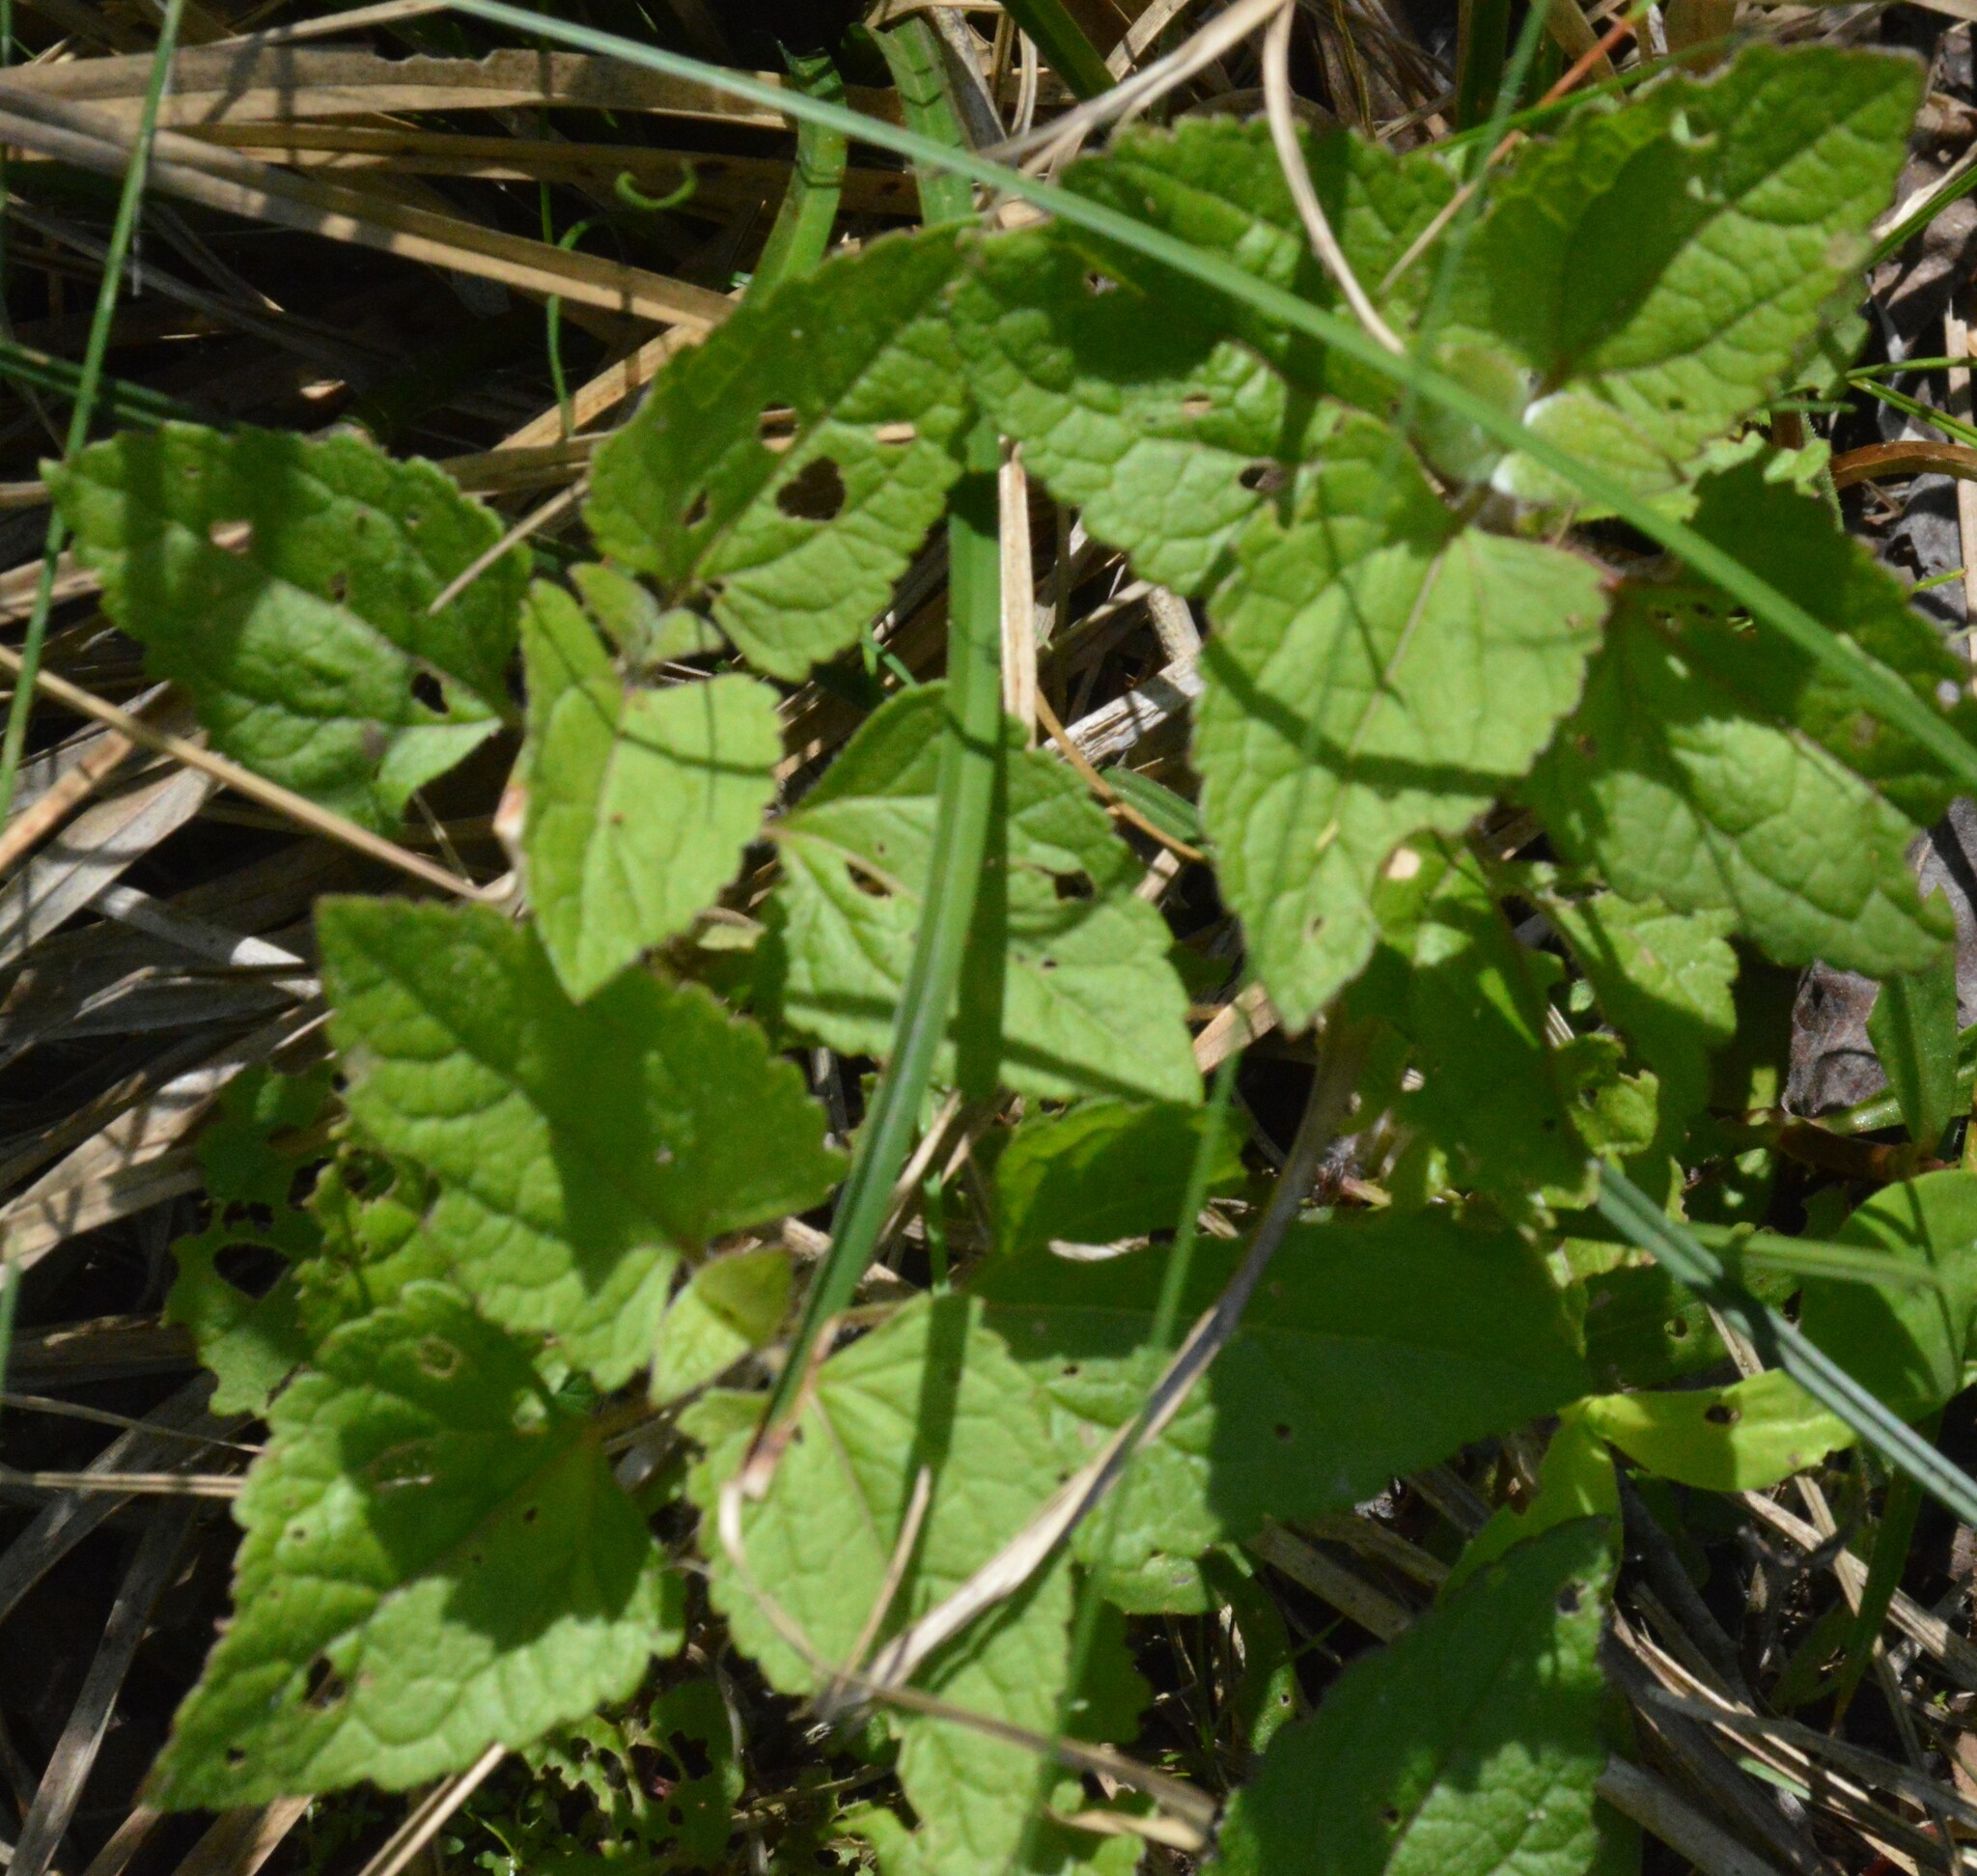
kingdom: Plantae
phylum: Tracheophyta
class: Magnoliopsida
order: Asterales
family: Asteraceae
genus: Conoclinium
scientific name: Conoclinium coelestinum
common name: Blue mistflower
